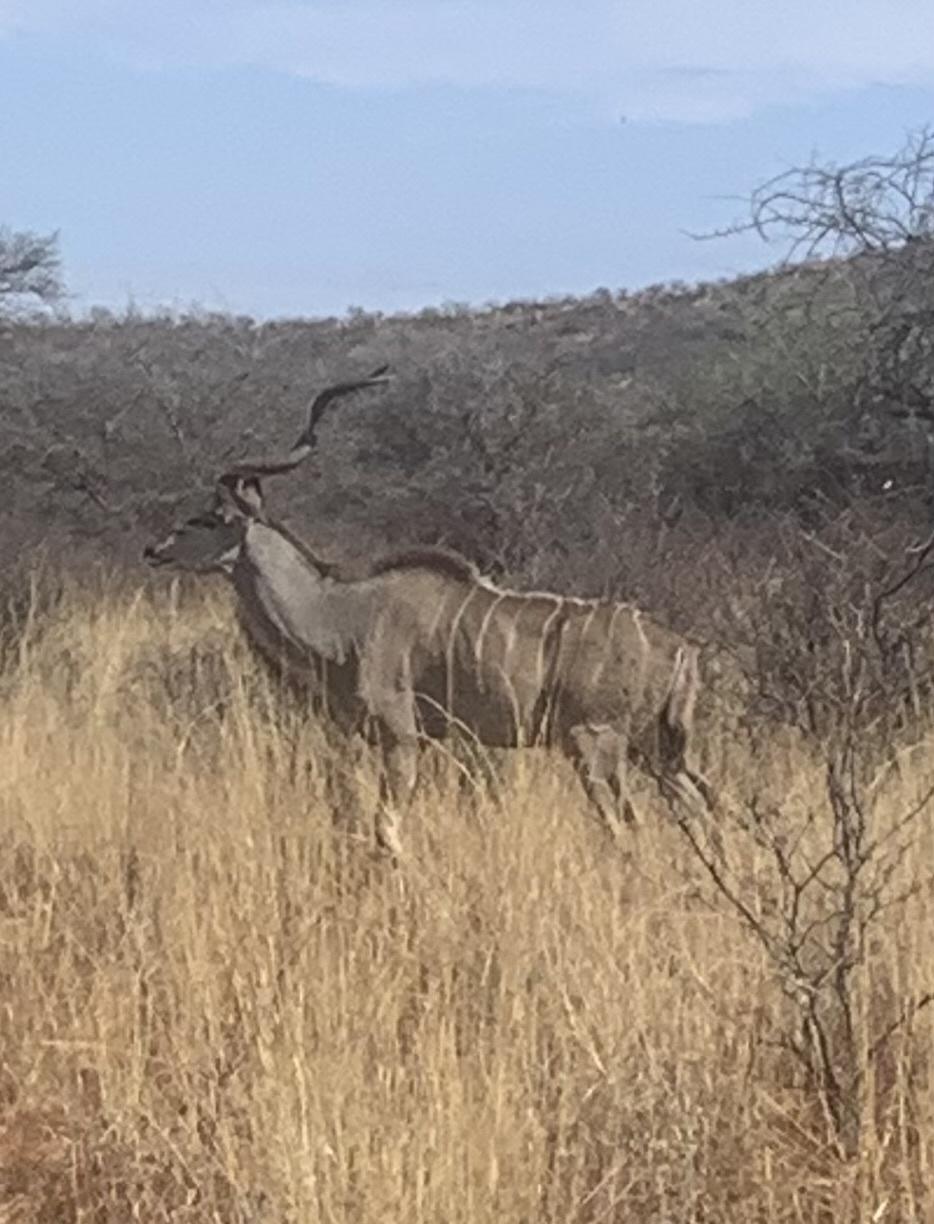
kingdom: Animalia
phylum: Chordata
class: Mammalia
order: Artiodactyla
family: Bovidae
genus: Tragelaphus
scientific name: Tragelaphus strepsiceros
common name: Greater kudu
